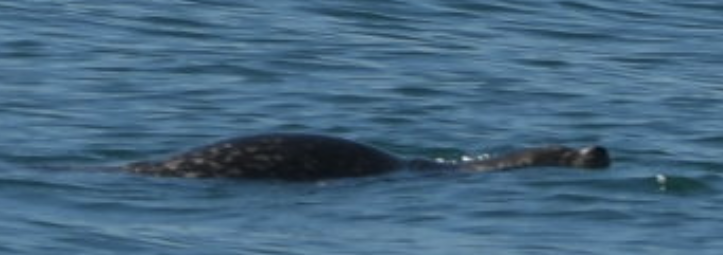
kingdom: Animalia
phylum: Chordata
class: Mammalia
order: Carnivora
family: Phocidae
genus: Phoca
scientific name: Phoca vitulina
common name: Harbor seal
